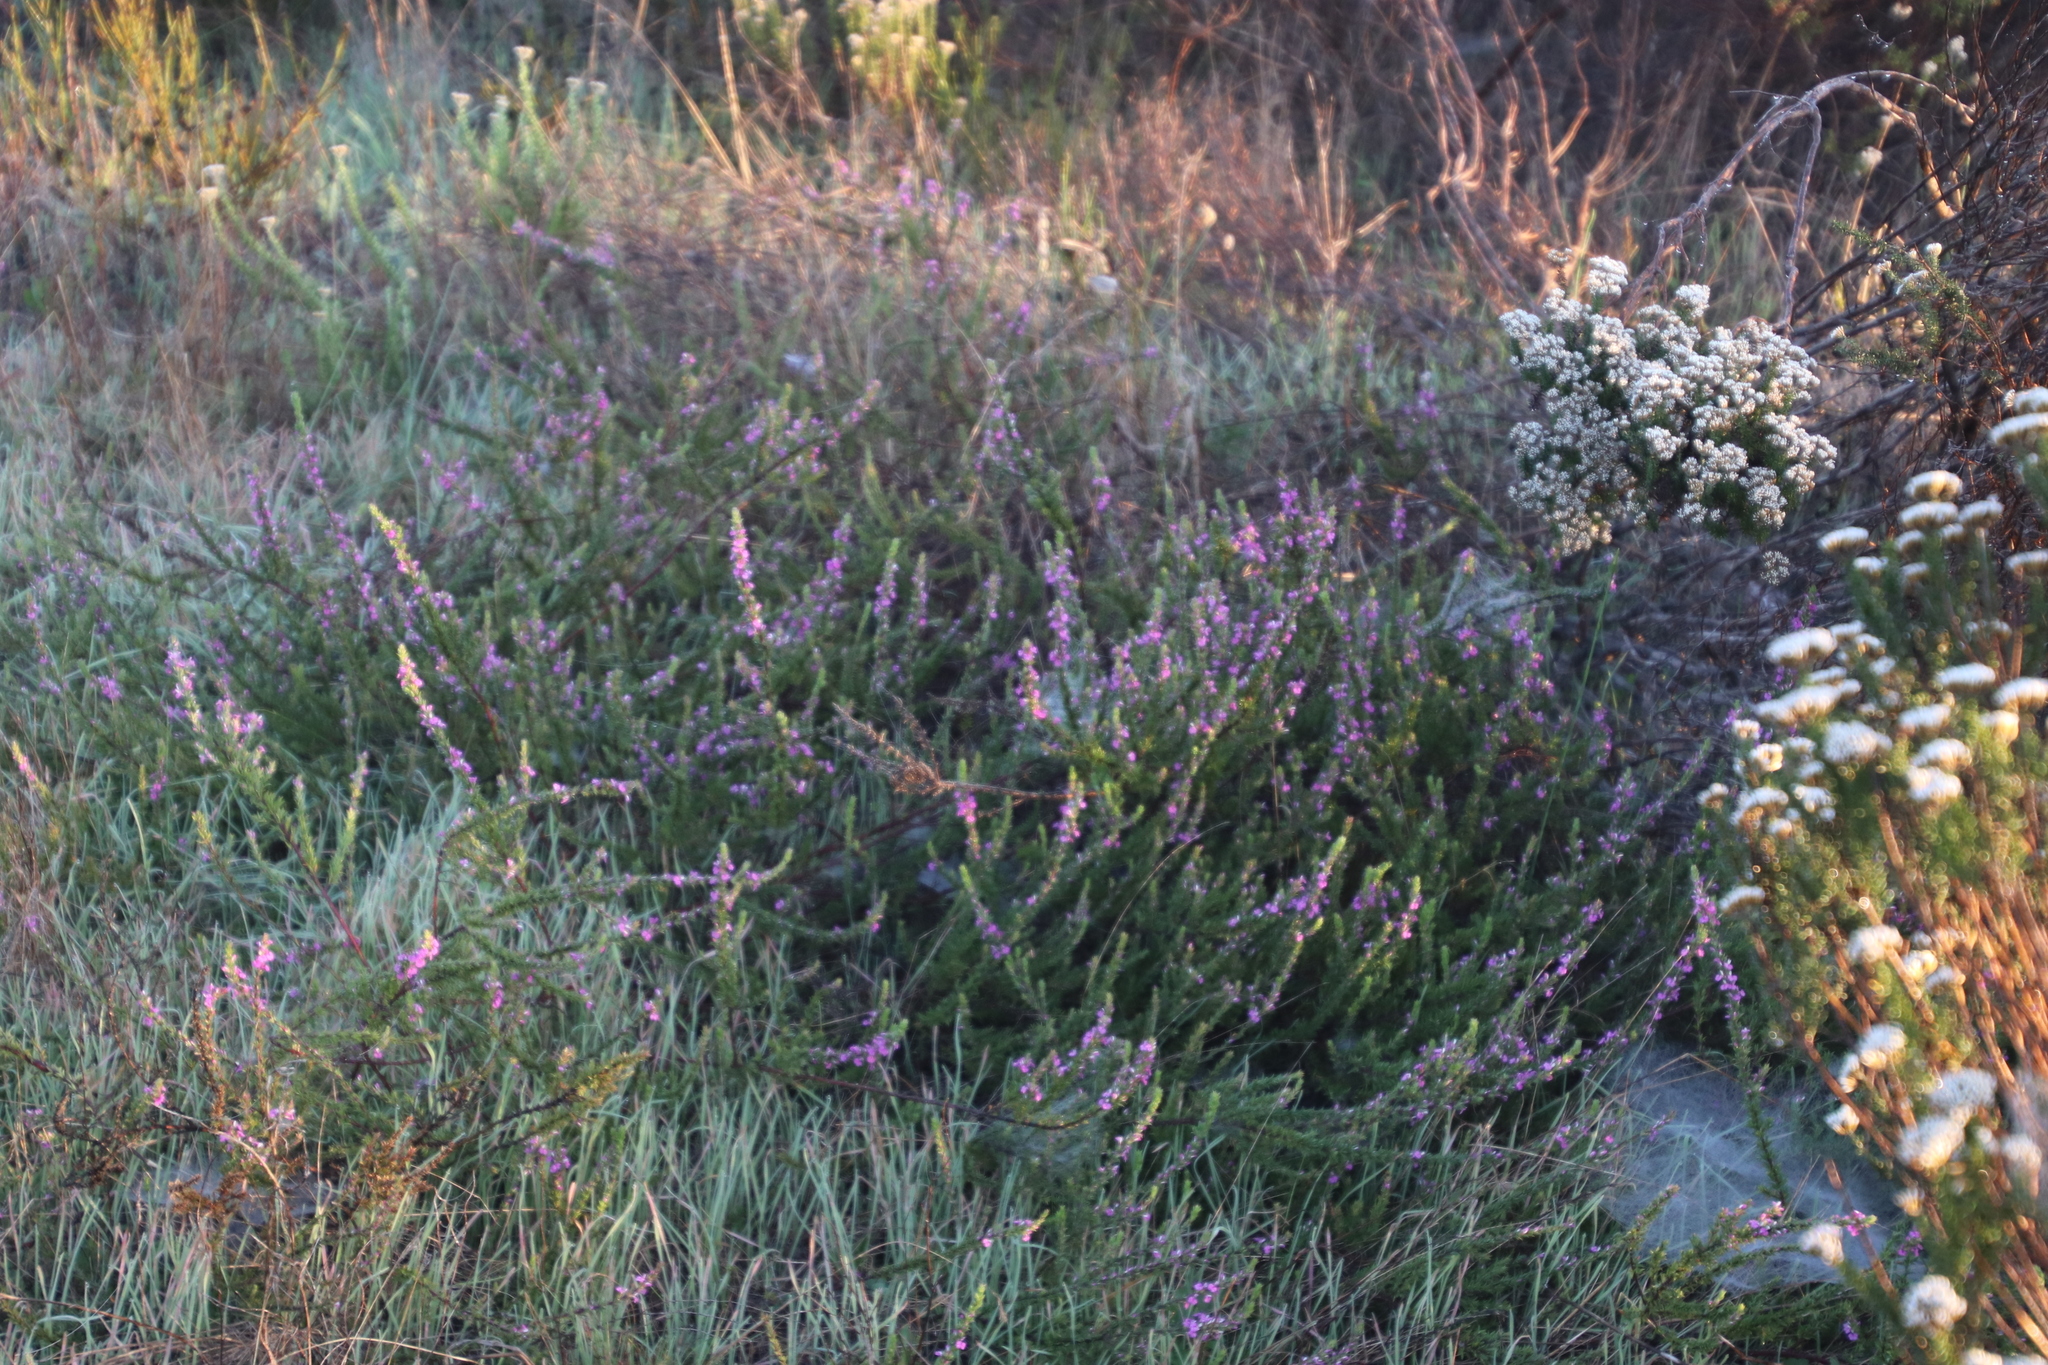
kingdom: Plantae
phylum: Tracheophyta
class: Magnoliopsida
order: Fabales
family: Polygalaceae
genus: Muraltia
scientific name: Muraltia heisteria
